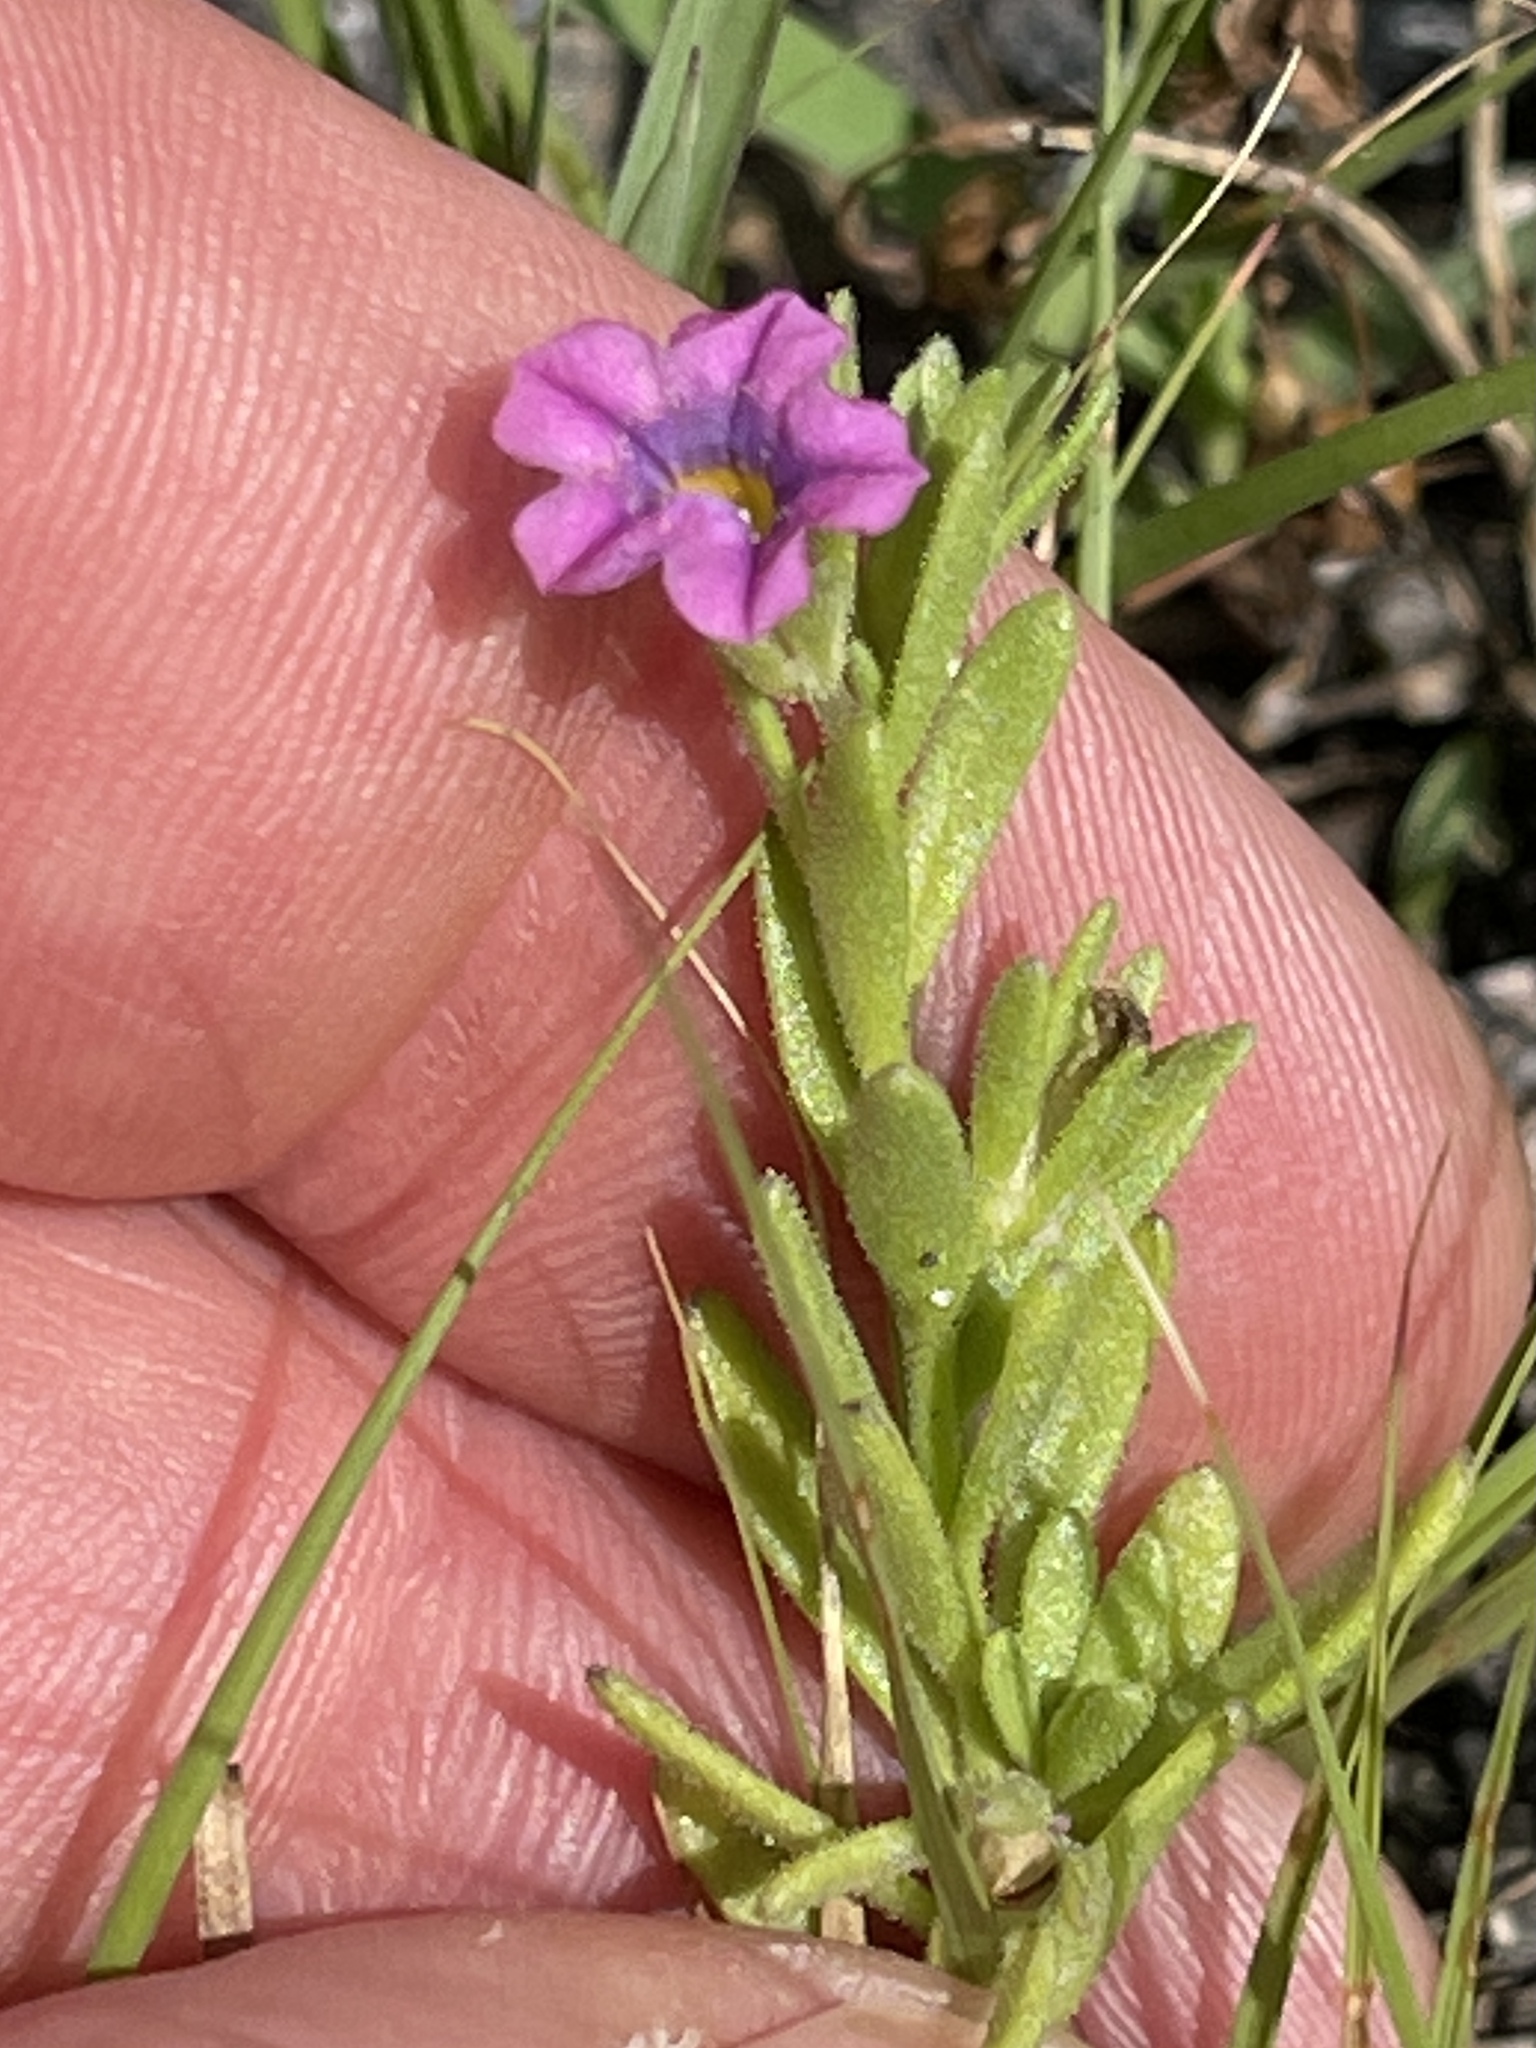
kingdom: Plantae
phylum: Tracheophyta
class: Magnoliopsida
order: Solanales
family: Solanaceae
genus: Calibrachoa
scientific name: Calibrachoa parviflora
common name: Seaside petunia
